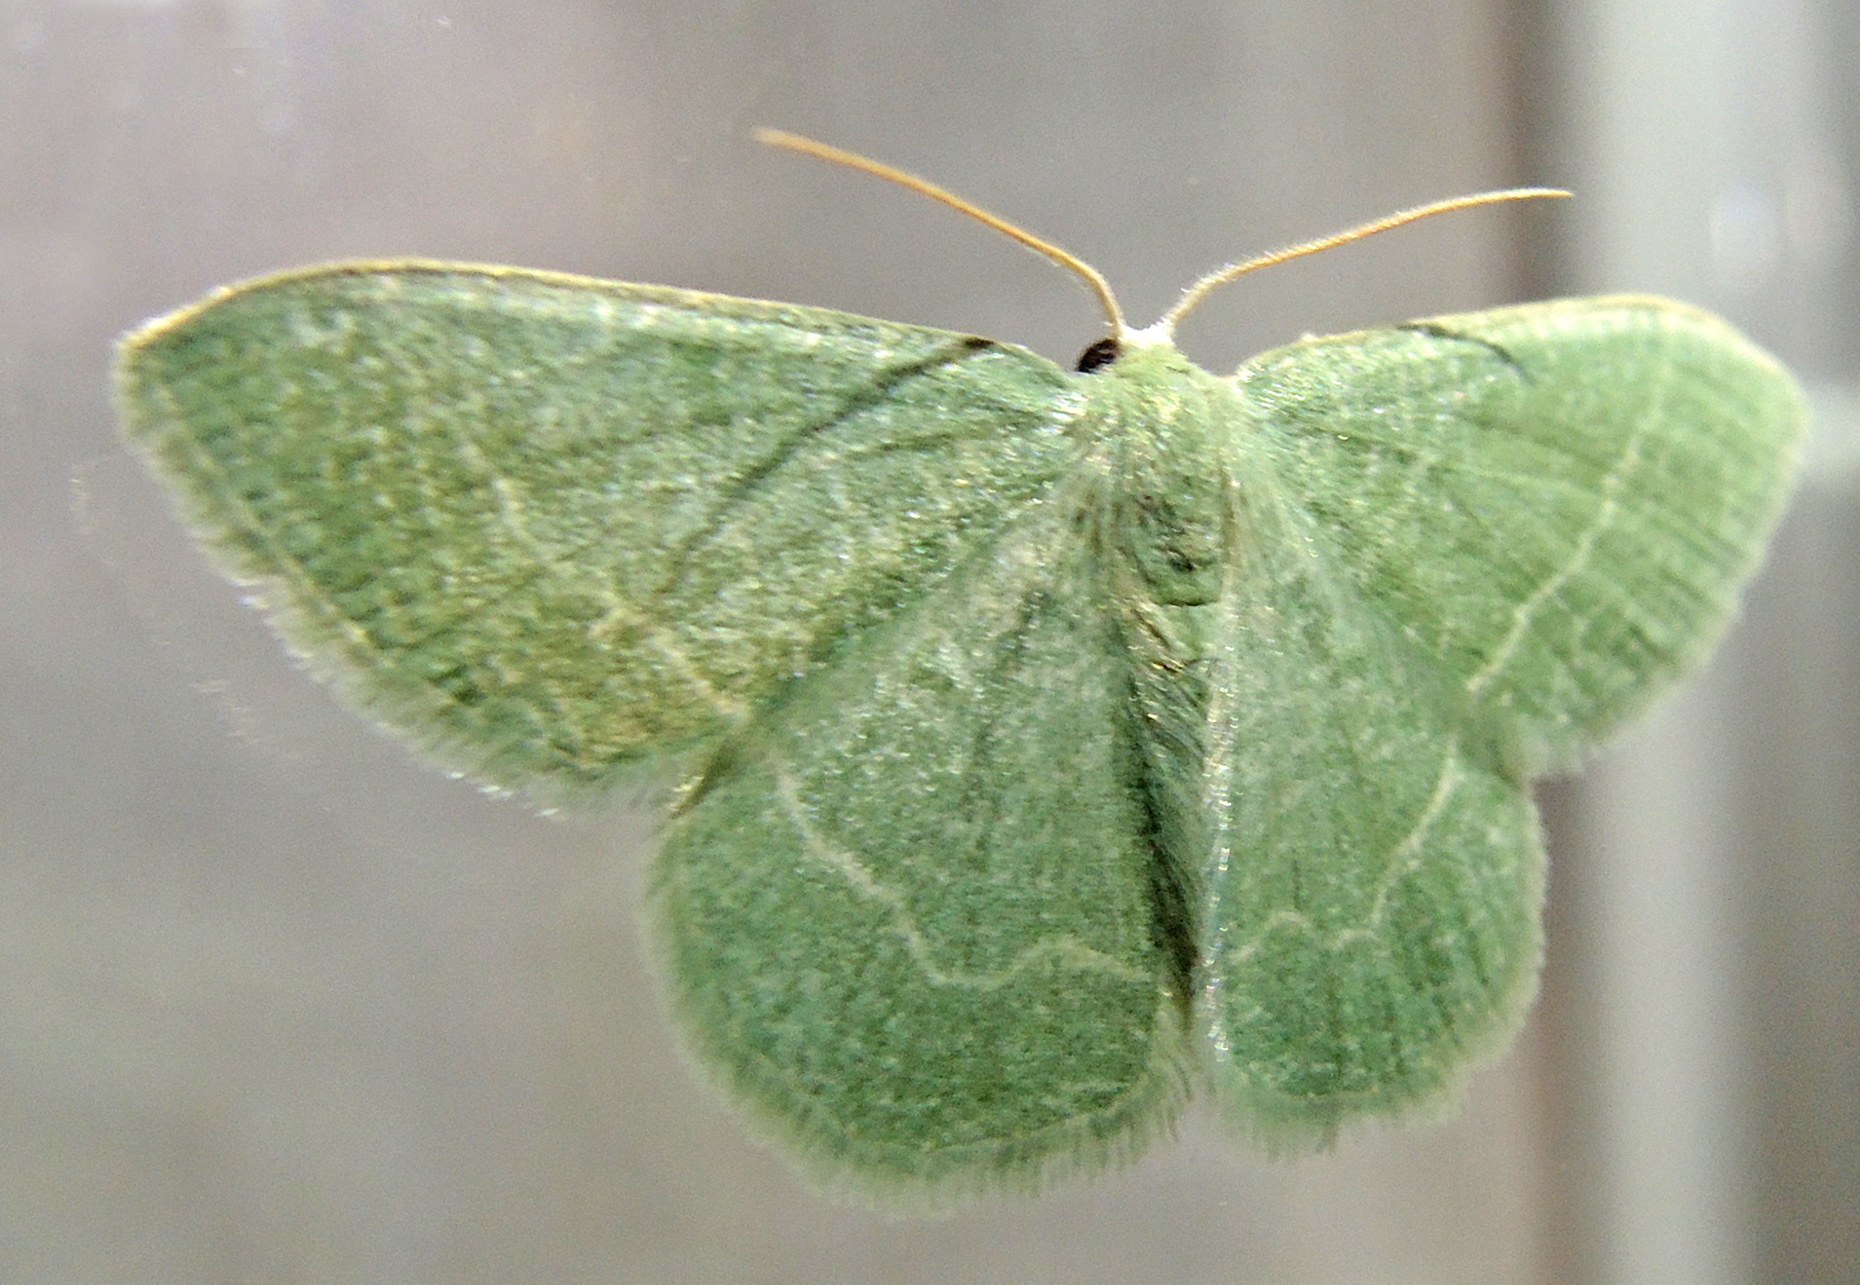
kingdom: Animalia
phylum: Arthropoda
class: Insecta
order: Lepidoptera
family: Geometridae
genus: Chlorissa
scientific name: Chlorissa etruscaria
